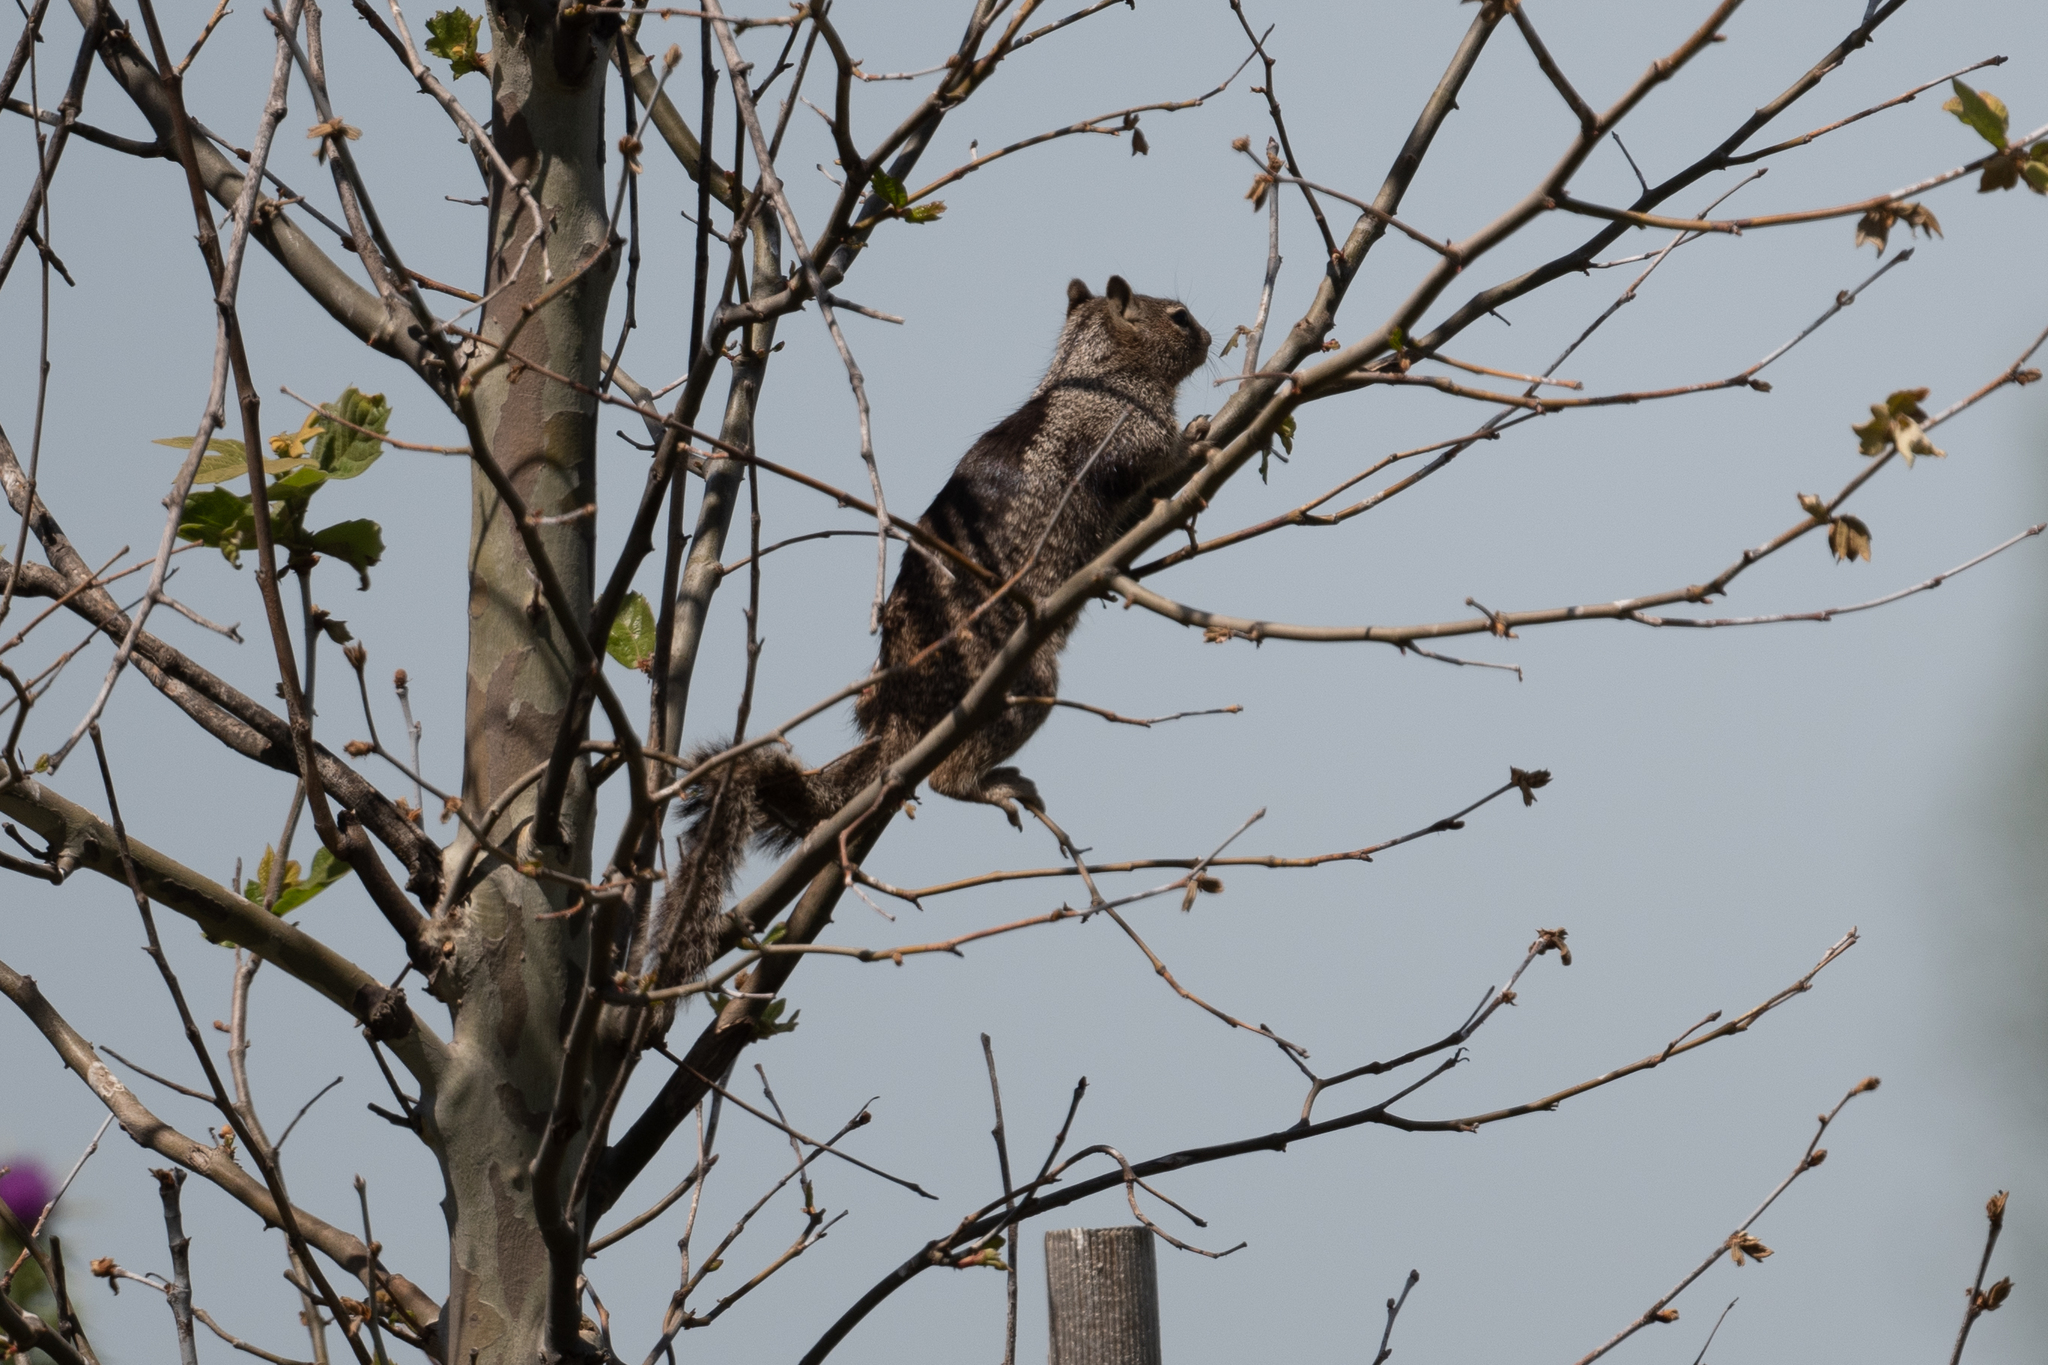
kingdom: Animalia
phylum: Chordata
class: Mammalia
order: Rodentia
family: Sciuridae
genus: Otospermophilus
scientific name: Otospermophilus beecheyi
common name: California ground squirrel
